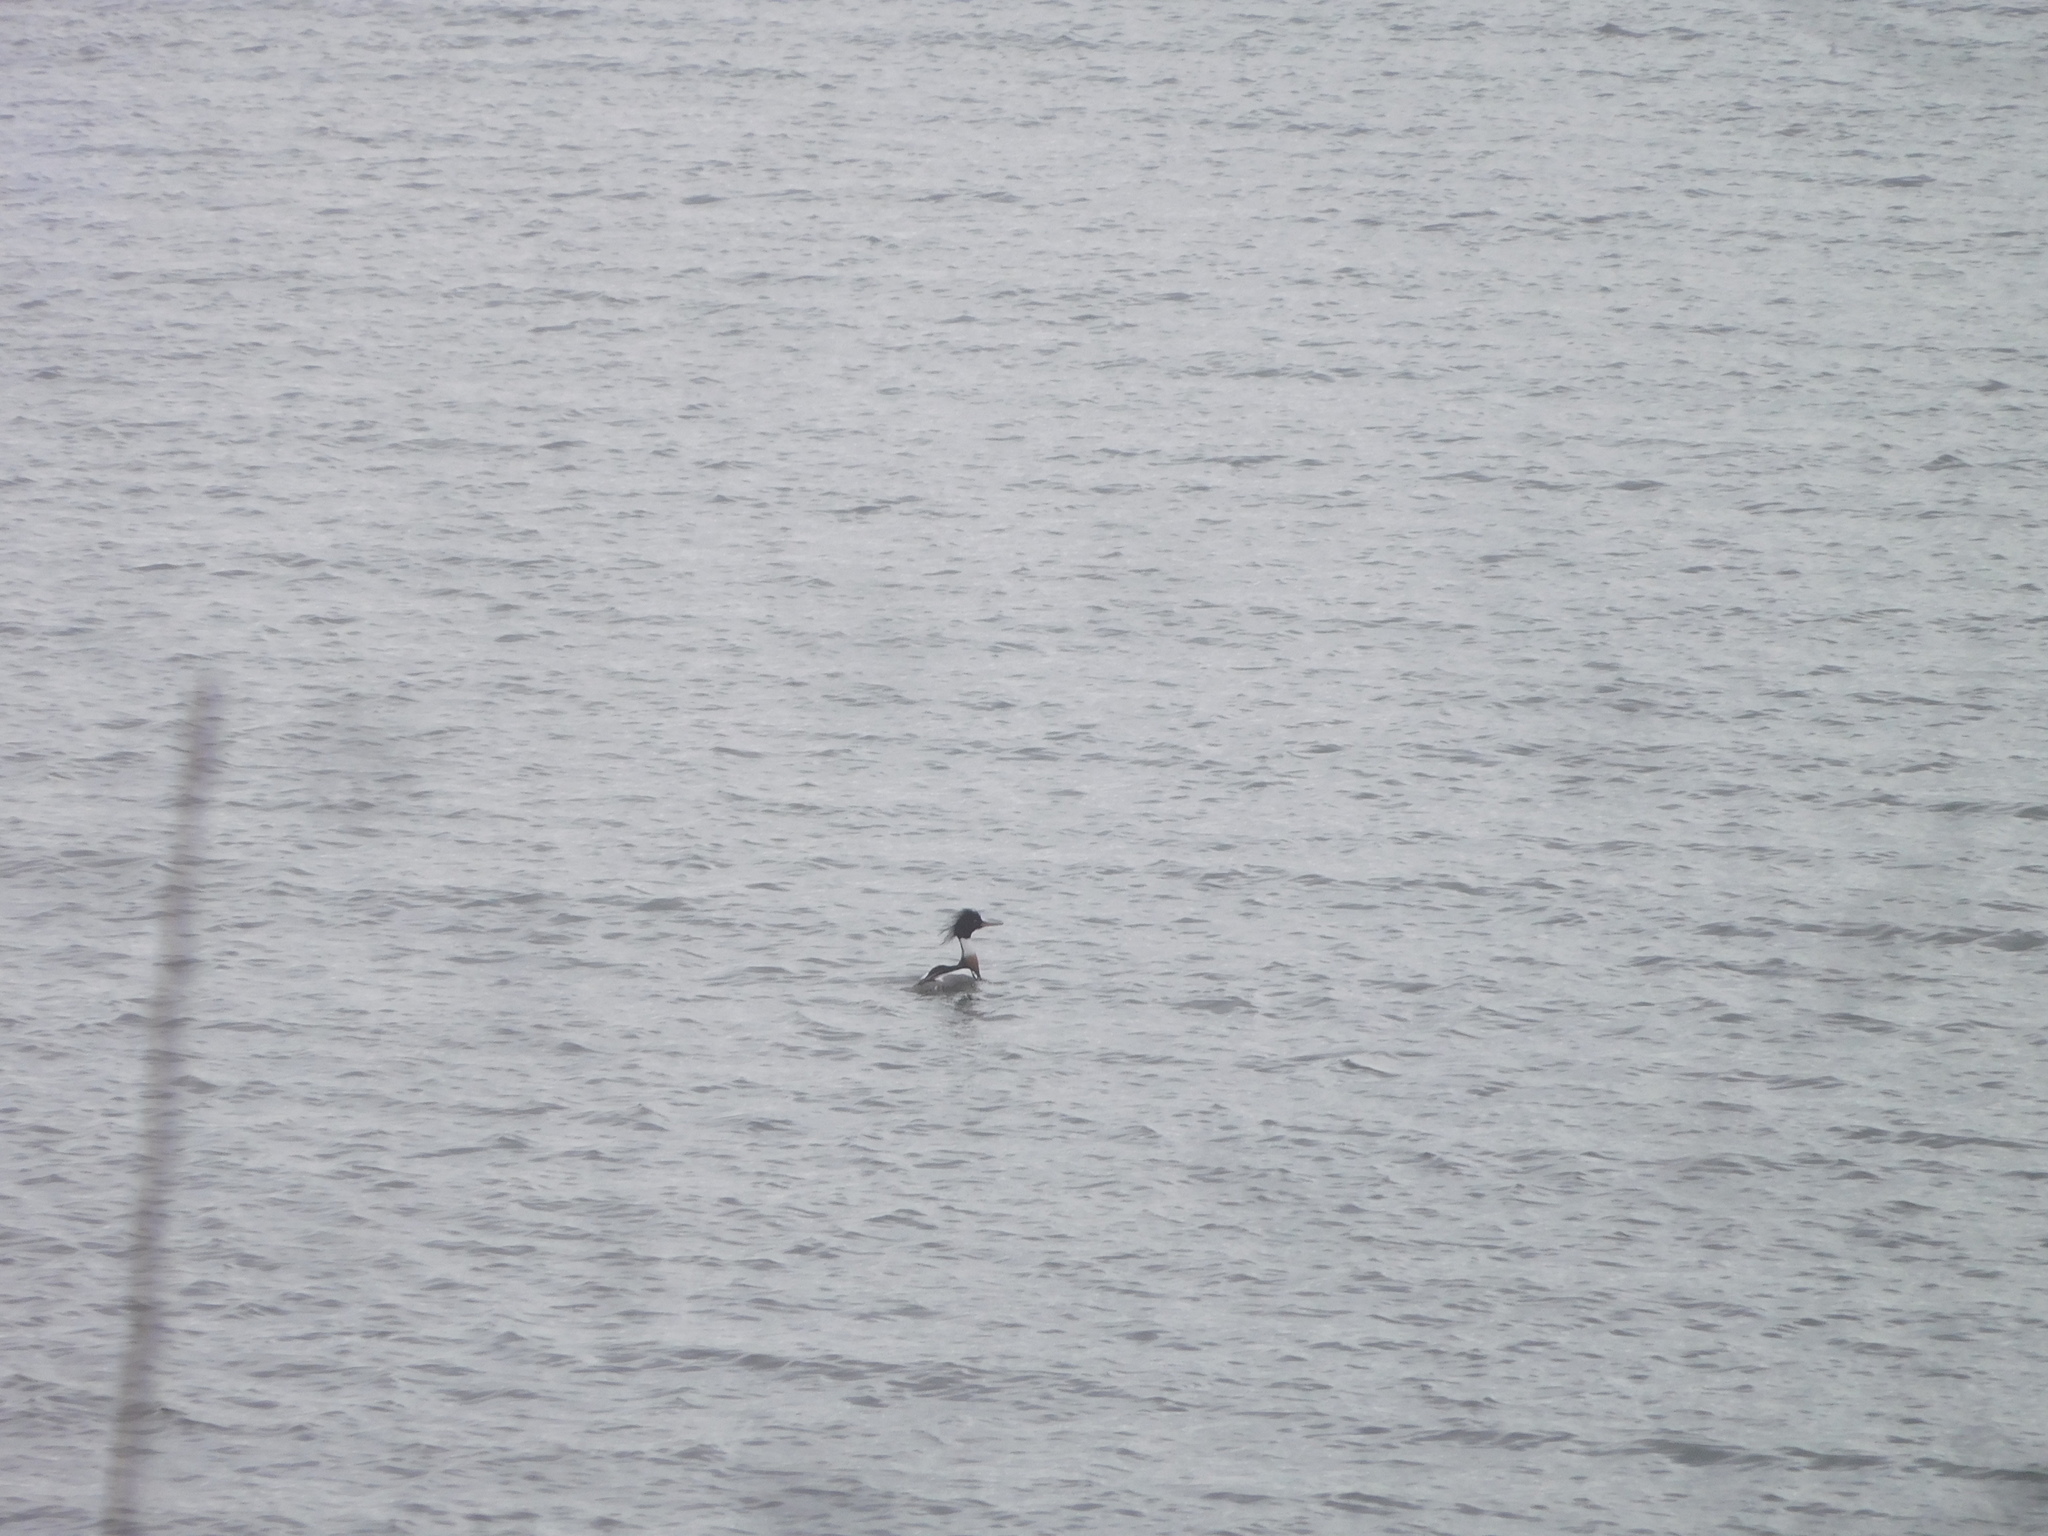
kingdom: Animalia
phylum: Chordata
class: Aves
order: Anseriformes
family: Anatidae
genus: Mergus
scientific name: Mergus serrator
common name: Red-breasted merganser
